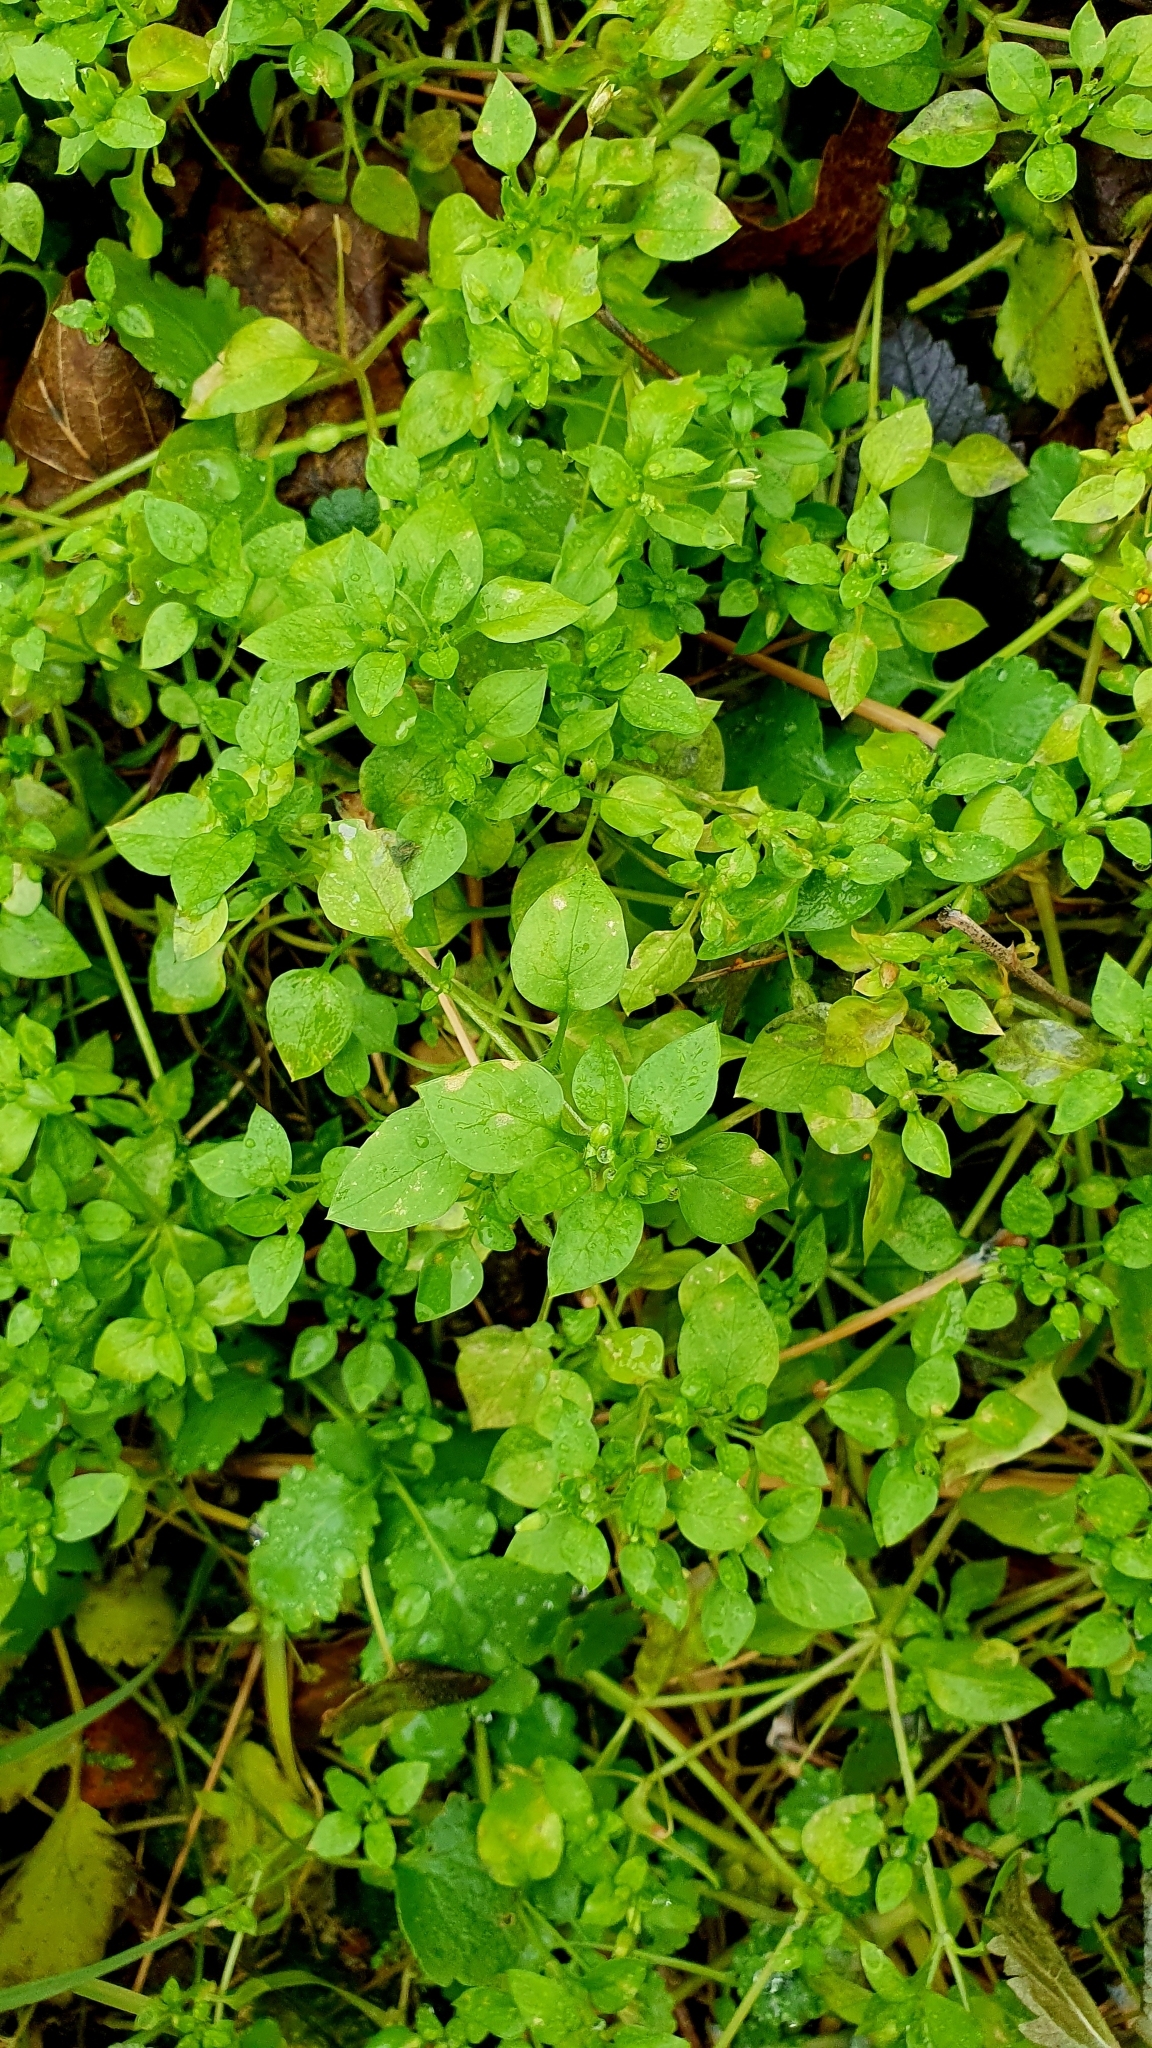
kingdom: Plantae
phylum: Tracheophyta
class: Magnoliopsida
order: Caryophyllales
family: Caryophyllaceae
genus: Stellaria
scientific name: Stellaria media
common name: Common chickweed
